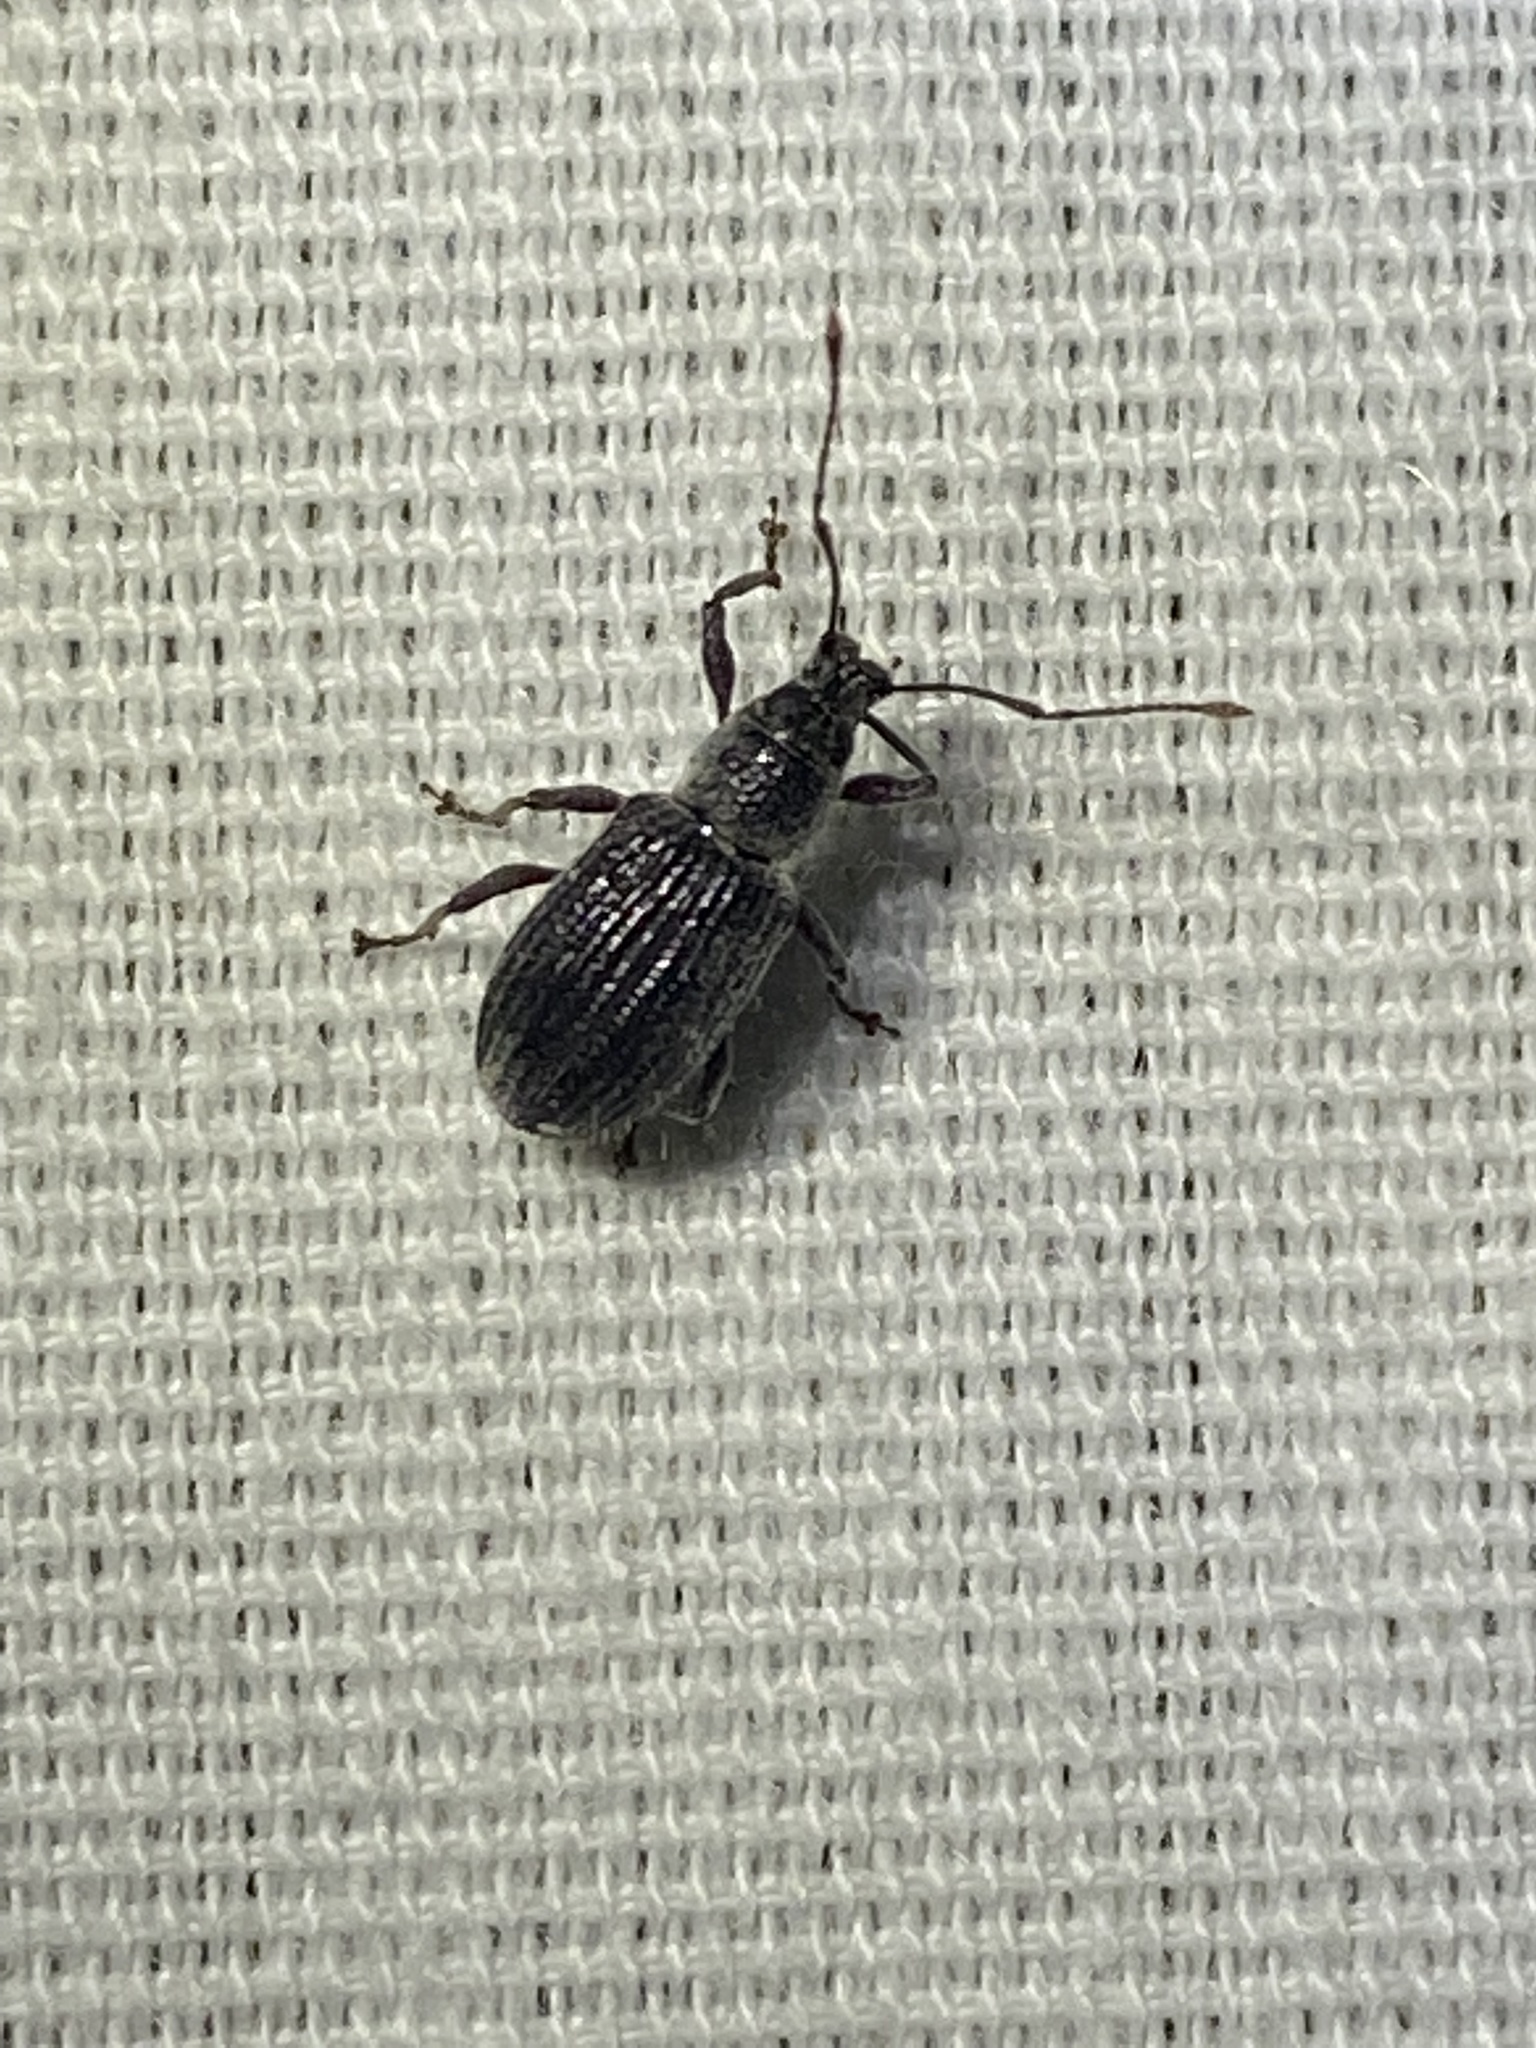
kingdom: Animalia
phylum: Arthropoda
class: Insecta
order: Coleoptera
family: Curculionidae
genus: Cyrtepistomus
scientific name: Cyrtepistomus castaneus
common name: Weevil
